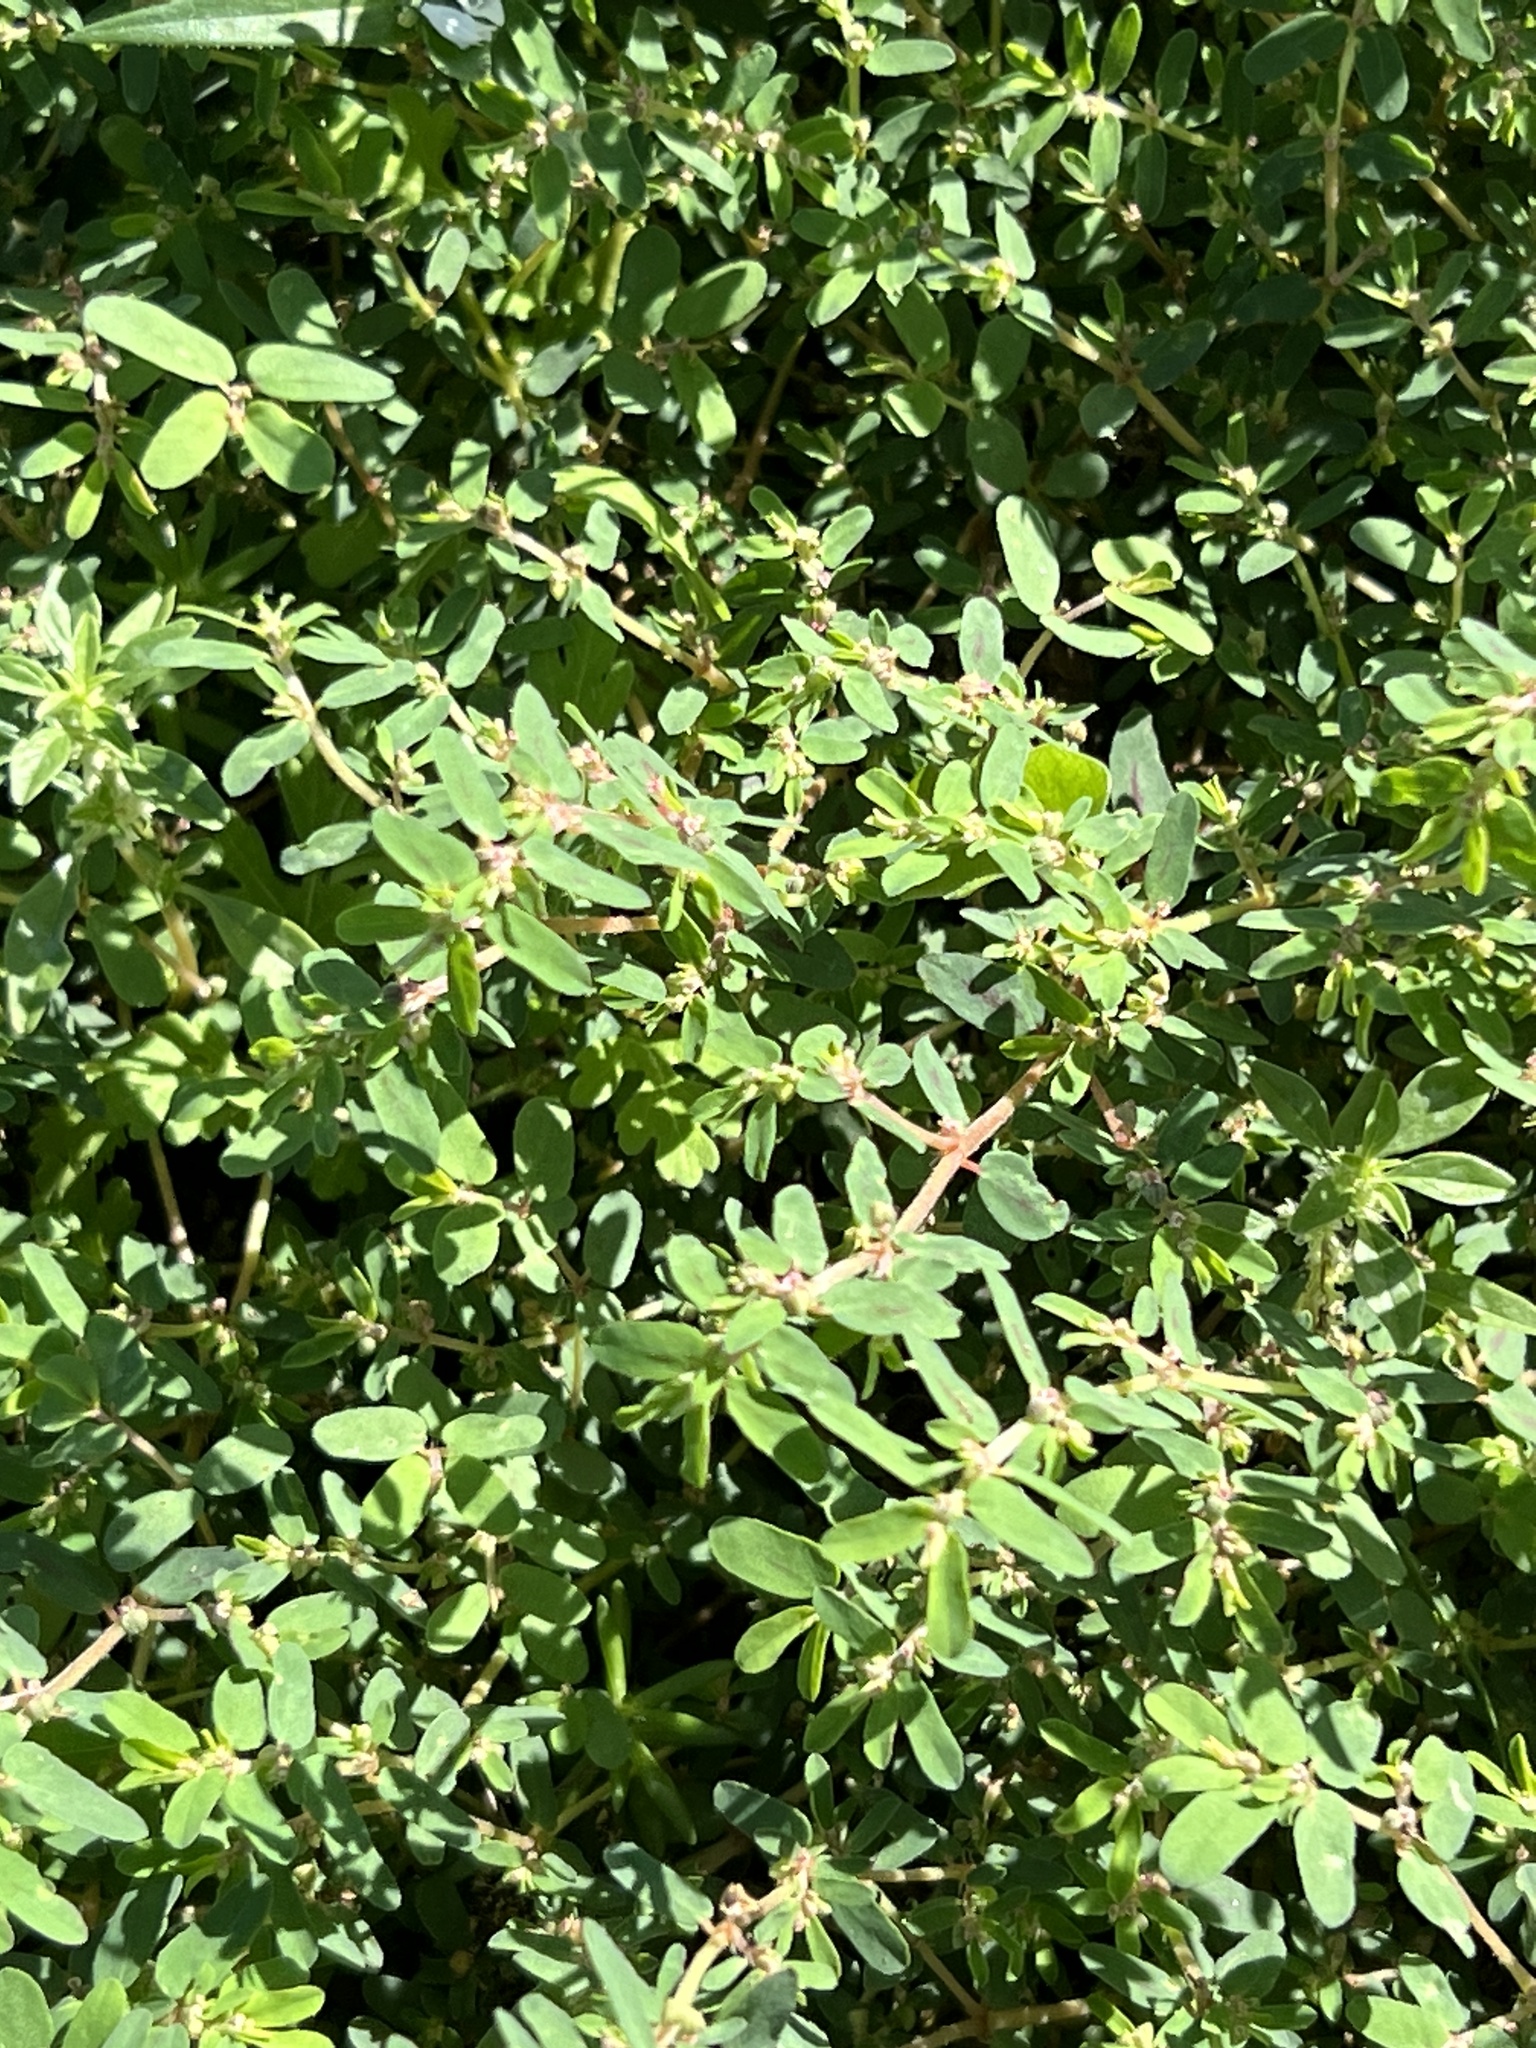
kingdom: Plantae
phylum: Tracheophyta
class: Magnoliopsida
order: Malpighiales
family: Euphorbiaceae
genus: Euphorbia
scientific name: Euphorbia maculata
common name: Spotted spurge
